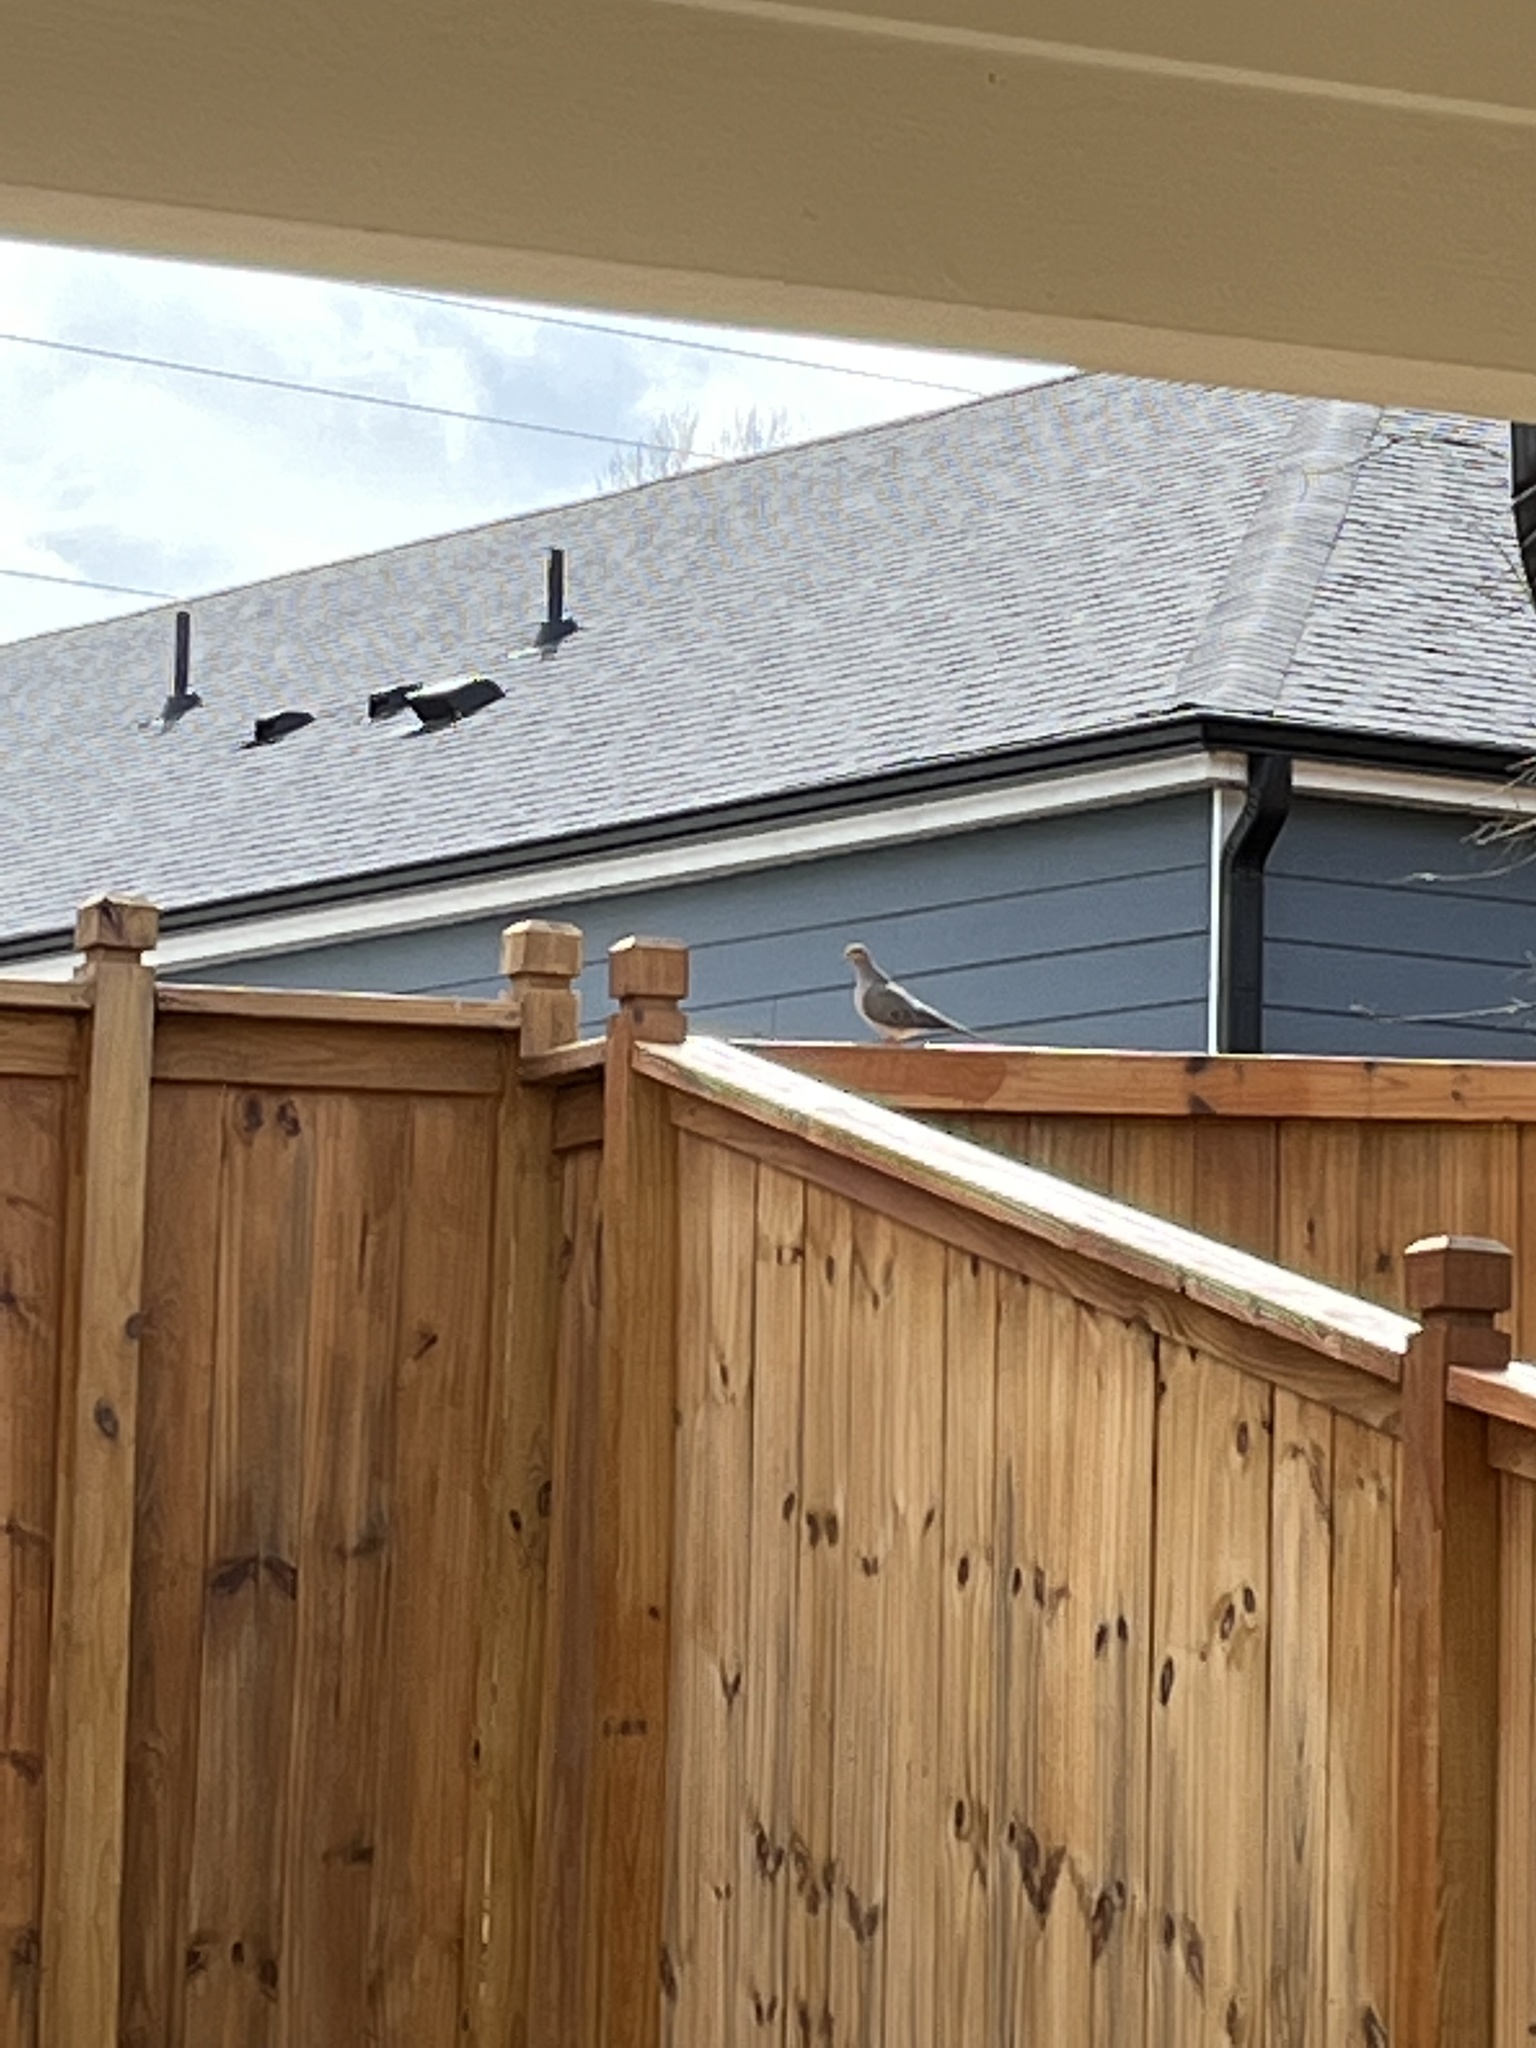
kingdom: Animalia
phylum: Chordata
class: Aves
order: Columbiformes
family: Columbidae
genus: Zenaida
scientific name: Zenaida macroura
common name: Mourning dove
